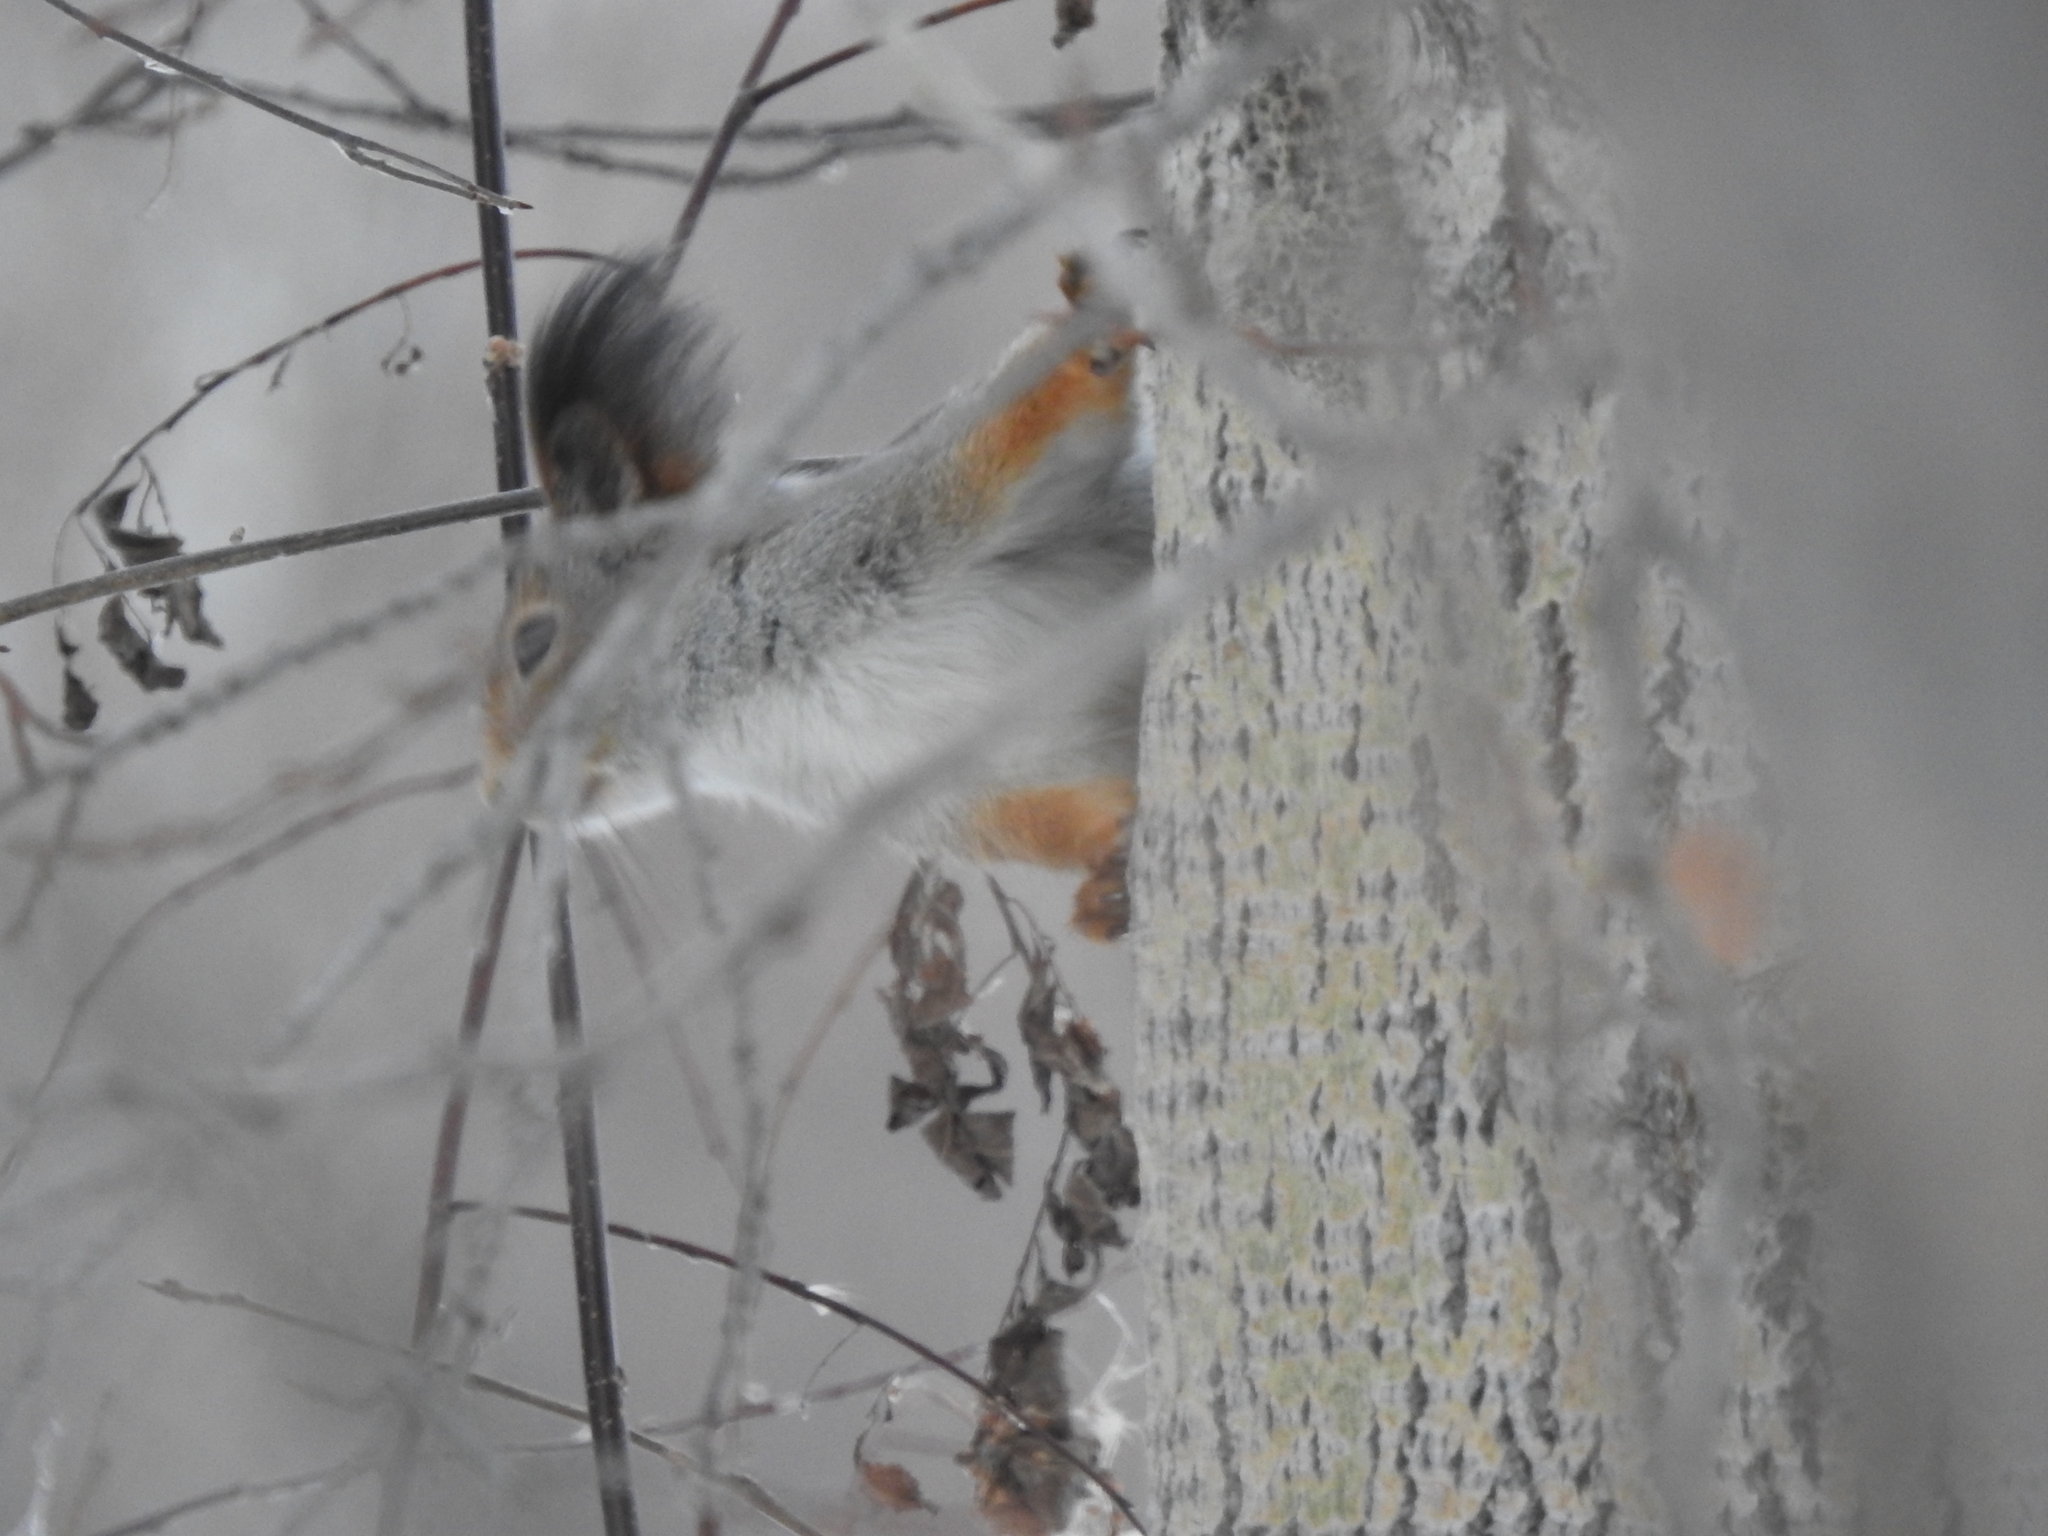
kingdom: Animalia
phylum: Chordata
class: Mammalia
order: Rodentia
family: Sciuridae
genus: Sciurus
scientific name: Sciurus vulgaris
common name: Eurasian red squirrel
